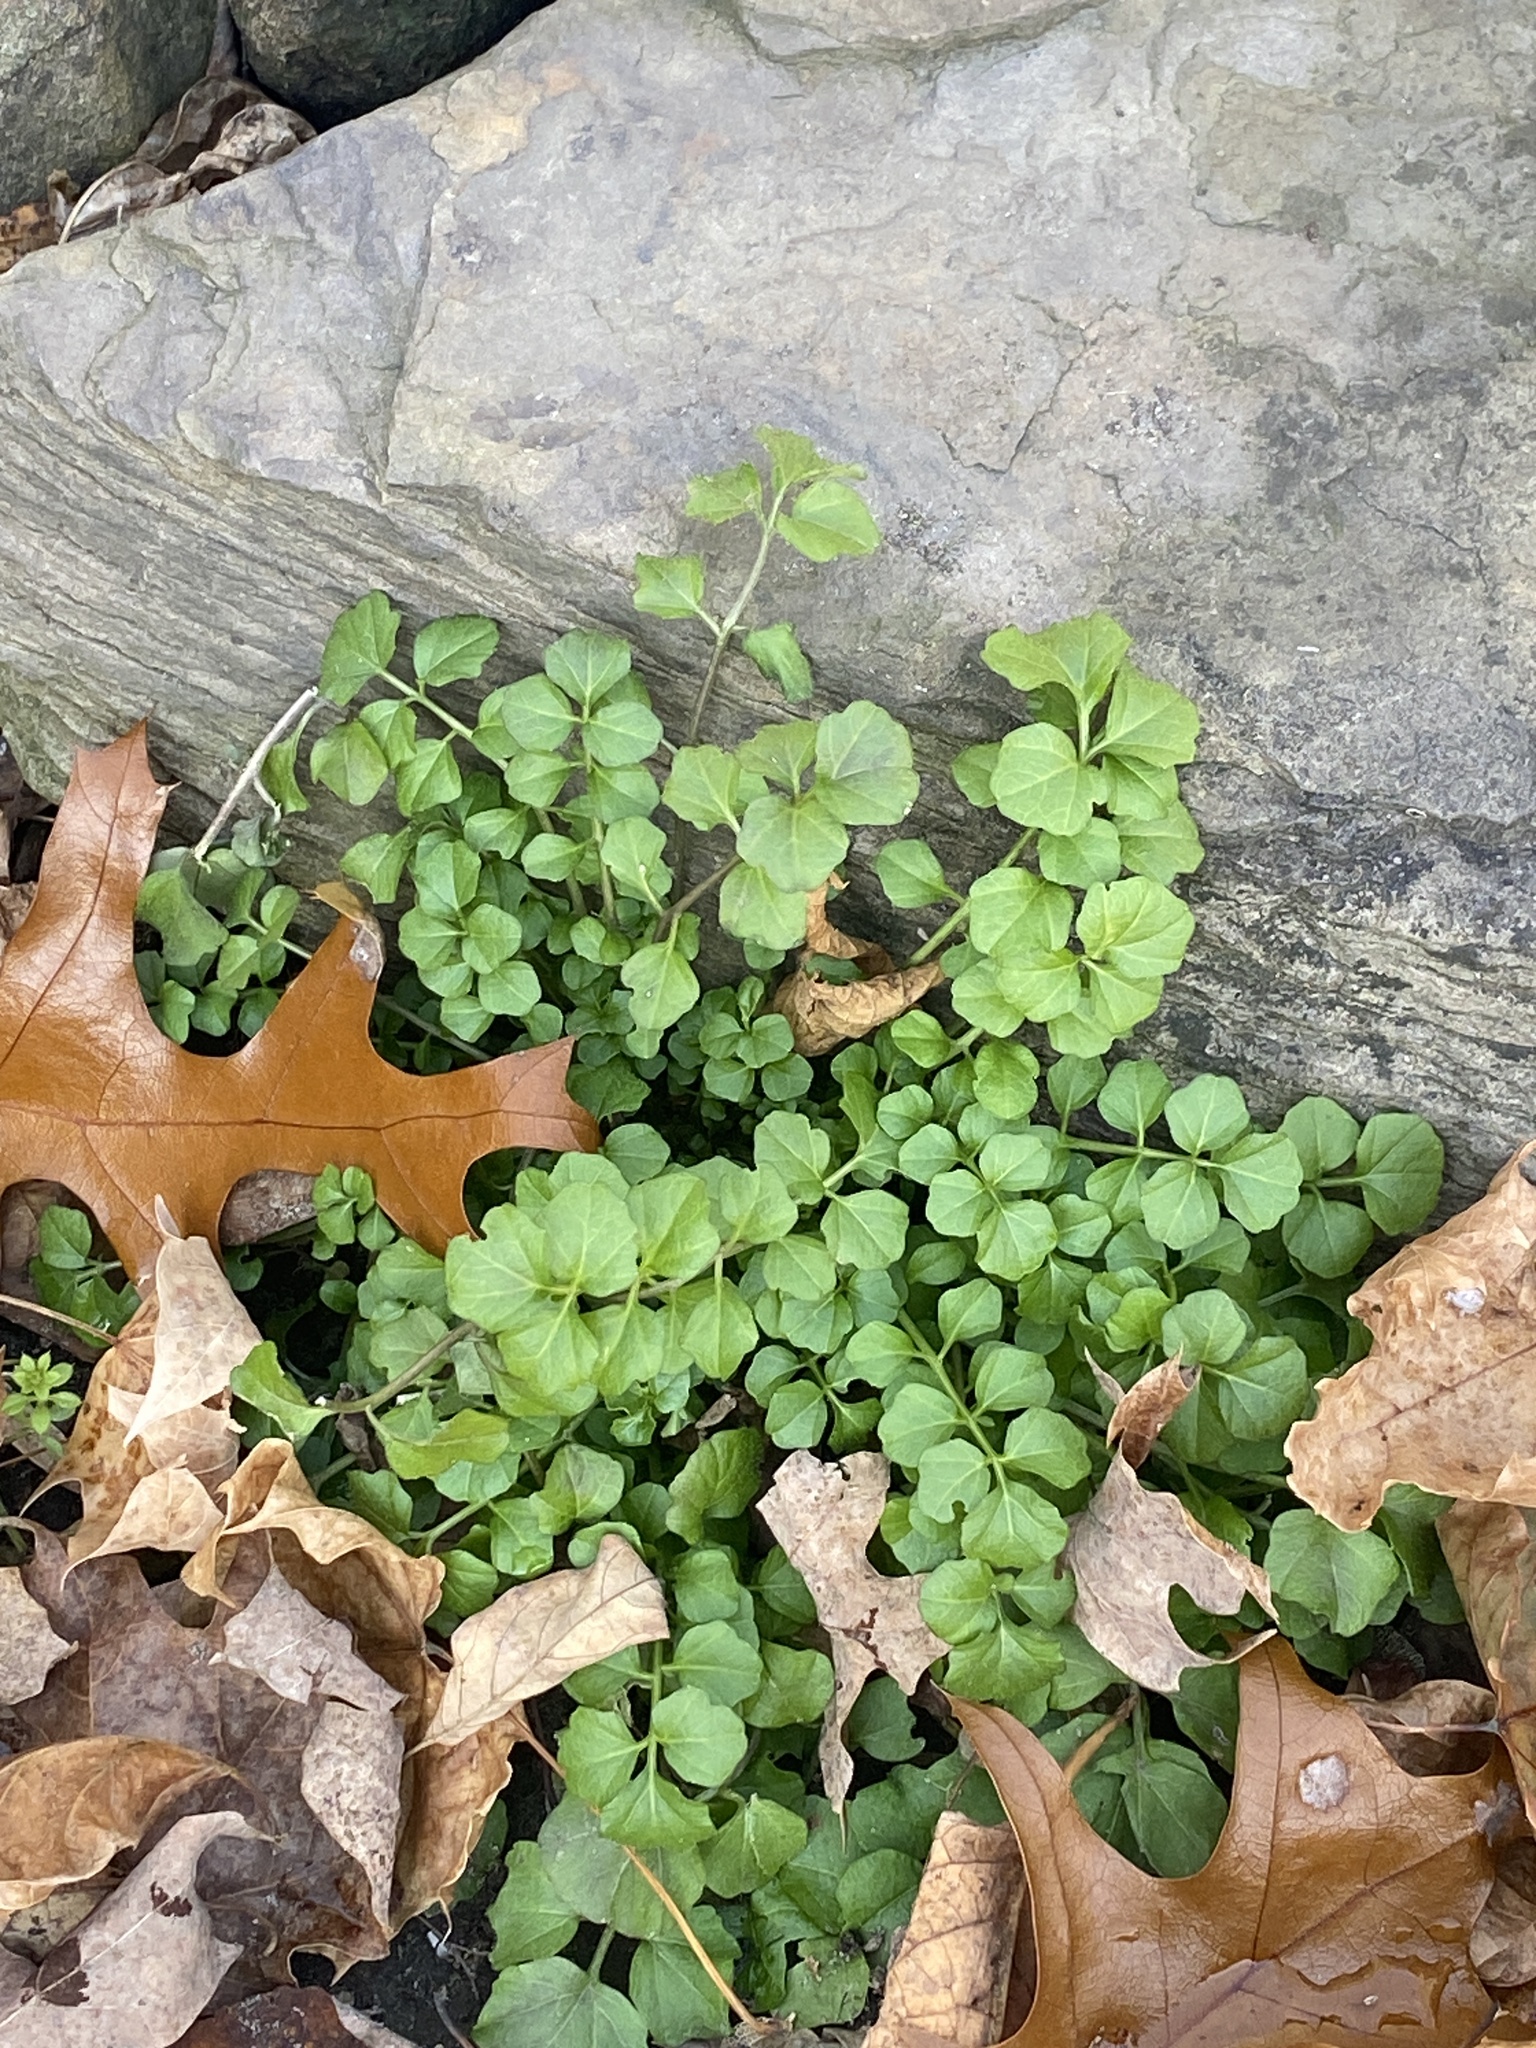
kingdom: Plantae
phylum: Tracheophyta
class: Magnoliopsida
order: Brassicales
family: Brassicaceae
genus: Cardamine
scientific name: Cardamine hirsuta
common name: Hairy bittercress
